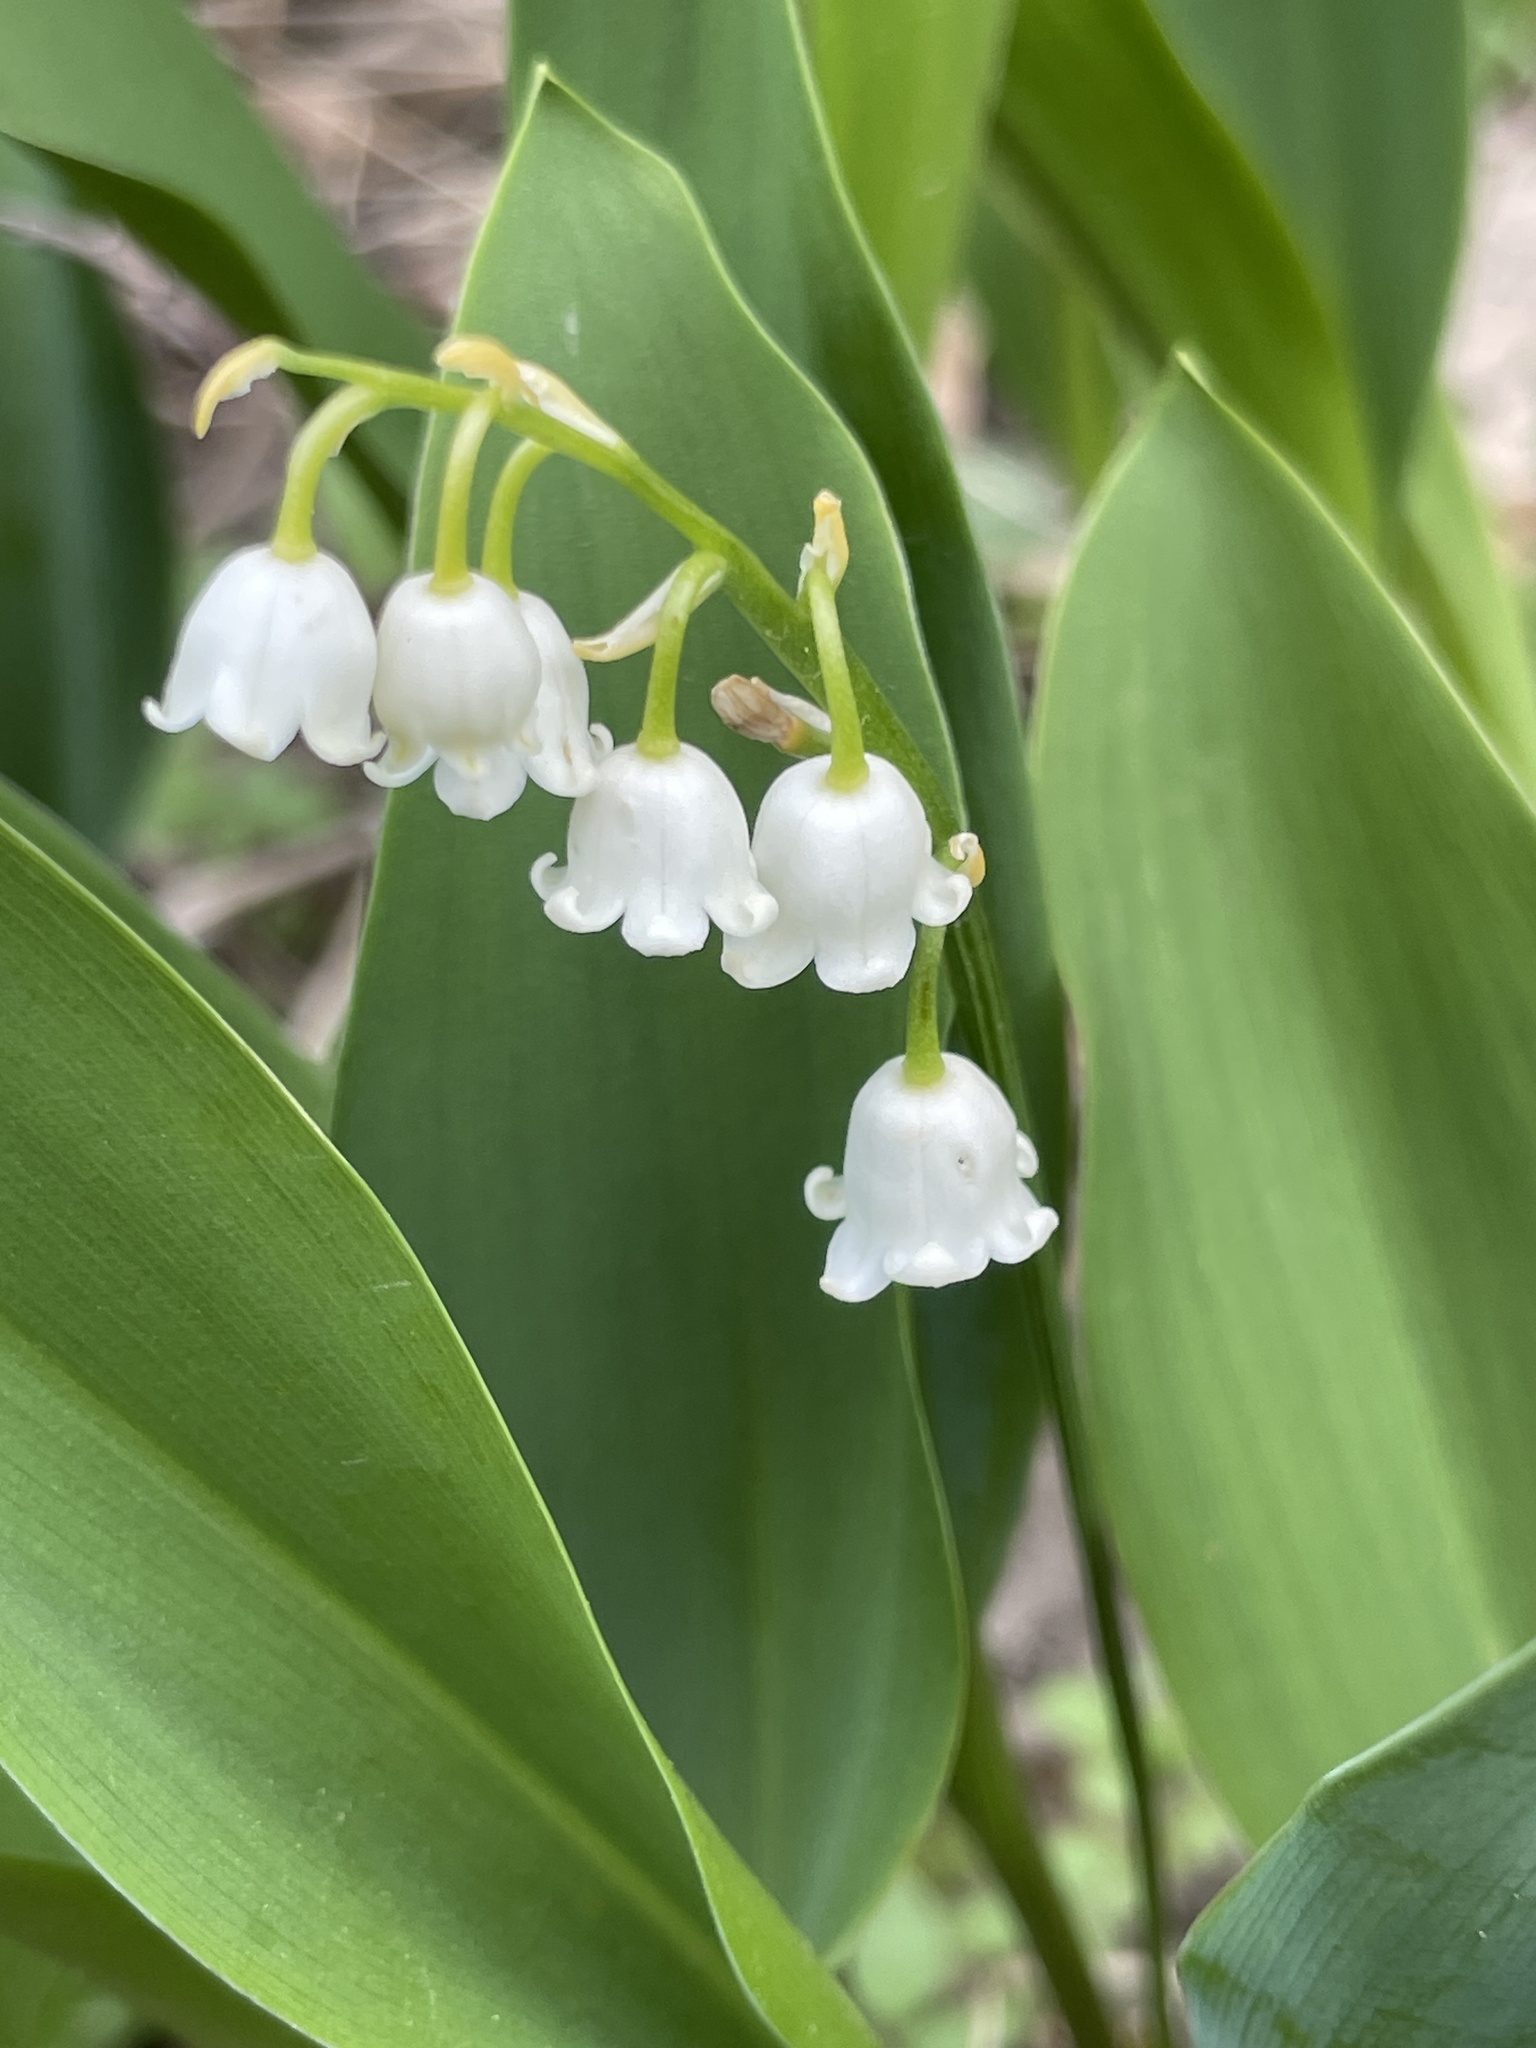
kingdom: Plantae
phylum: Tracheophyta
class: Liliopsida
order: Asparagales
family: Asparagaceae
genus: Convallaria
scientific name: Convallaria majalis
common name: Lily-of-the-valley
